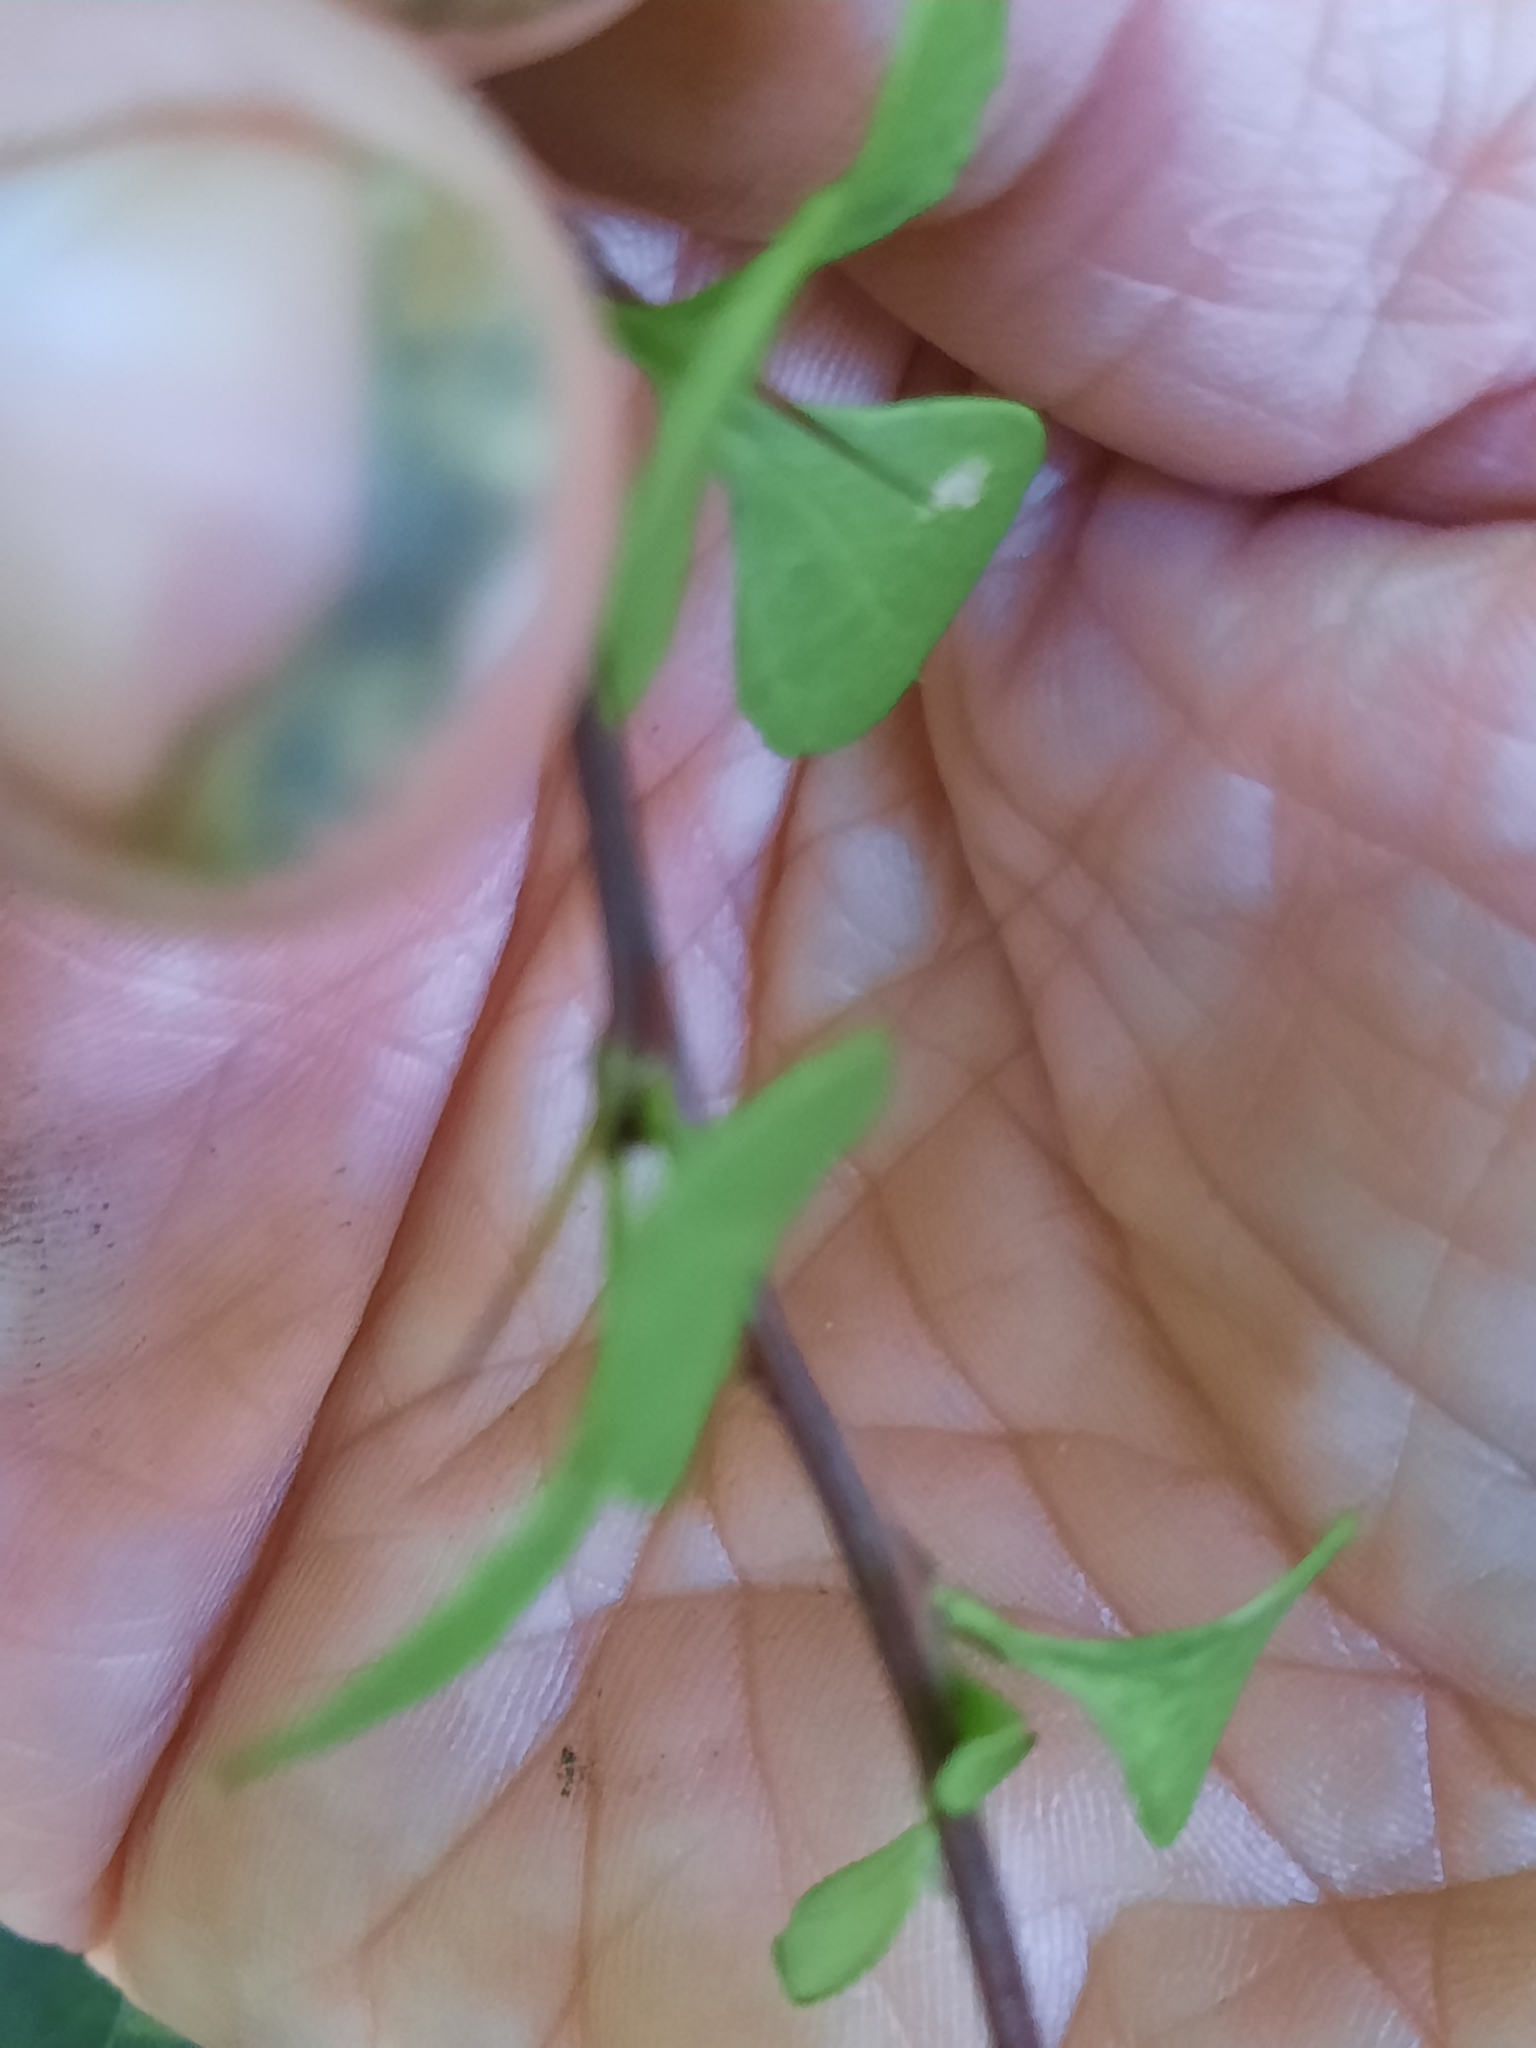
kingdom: Plantae
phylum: Tracheophyta
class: Magnoliopsida
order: Ranunculales
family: Berberidaceae
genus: Berberis
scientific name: Berberis thunbergii
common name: Japanese barberry
